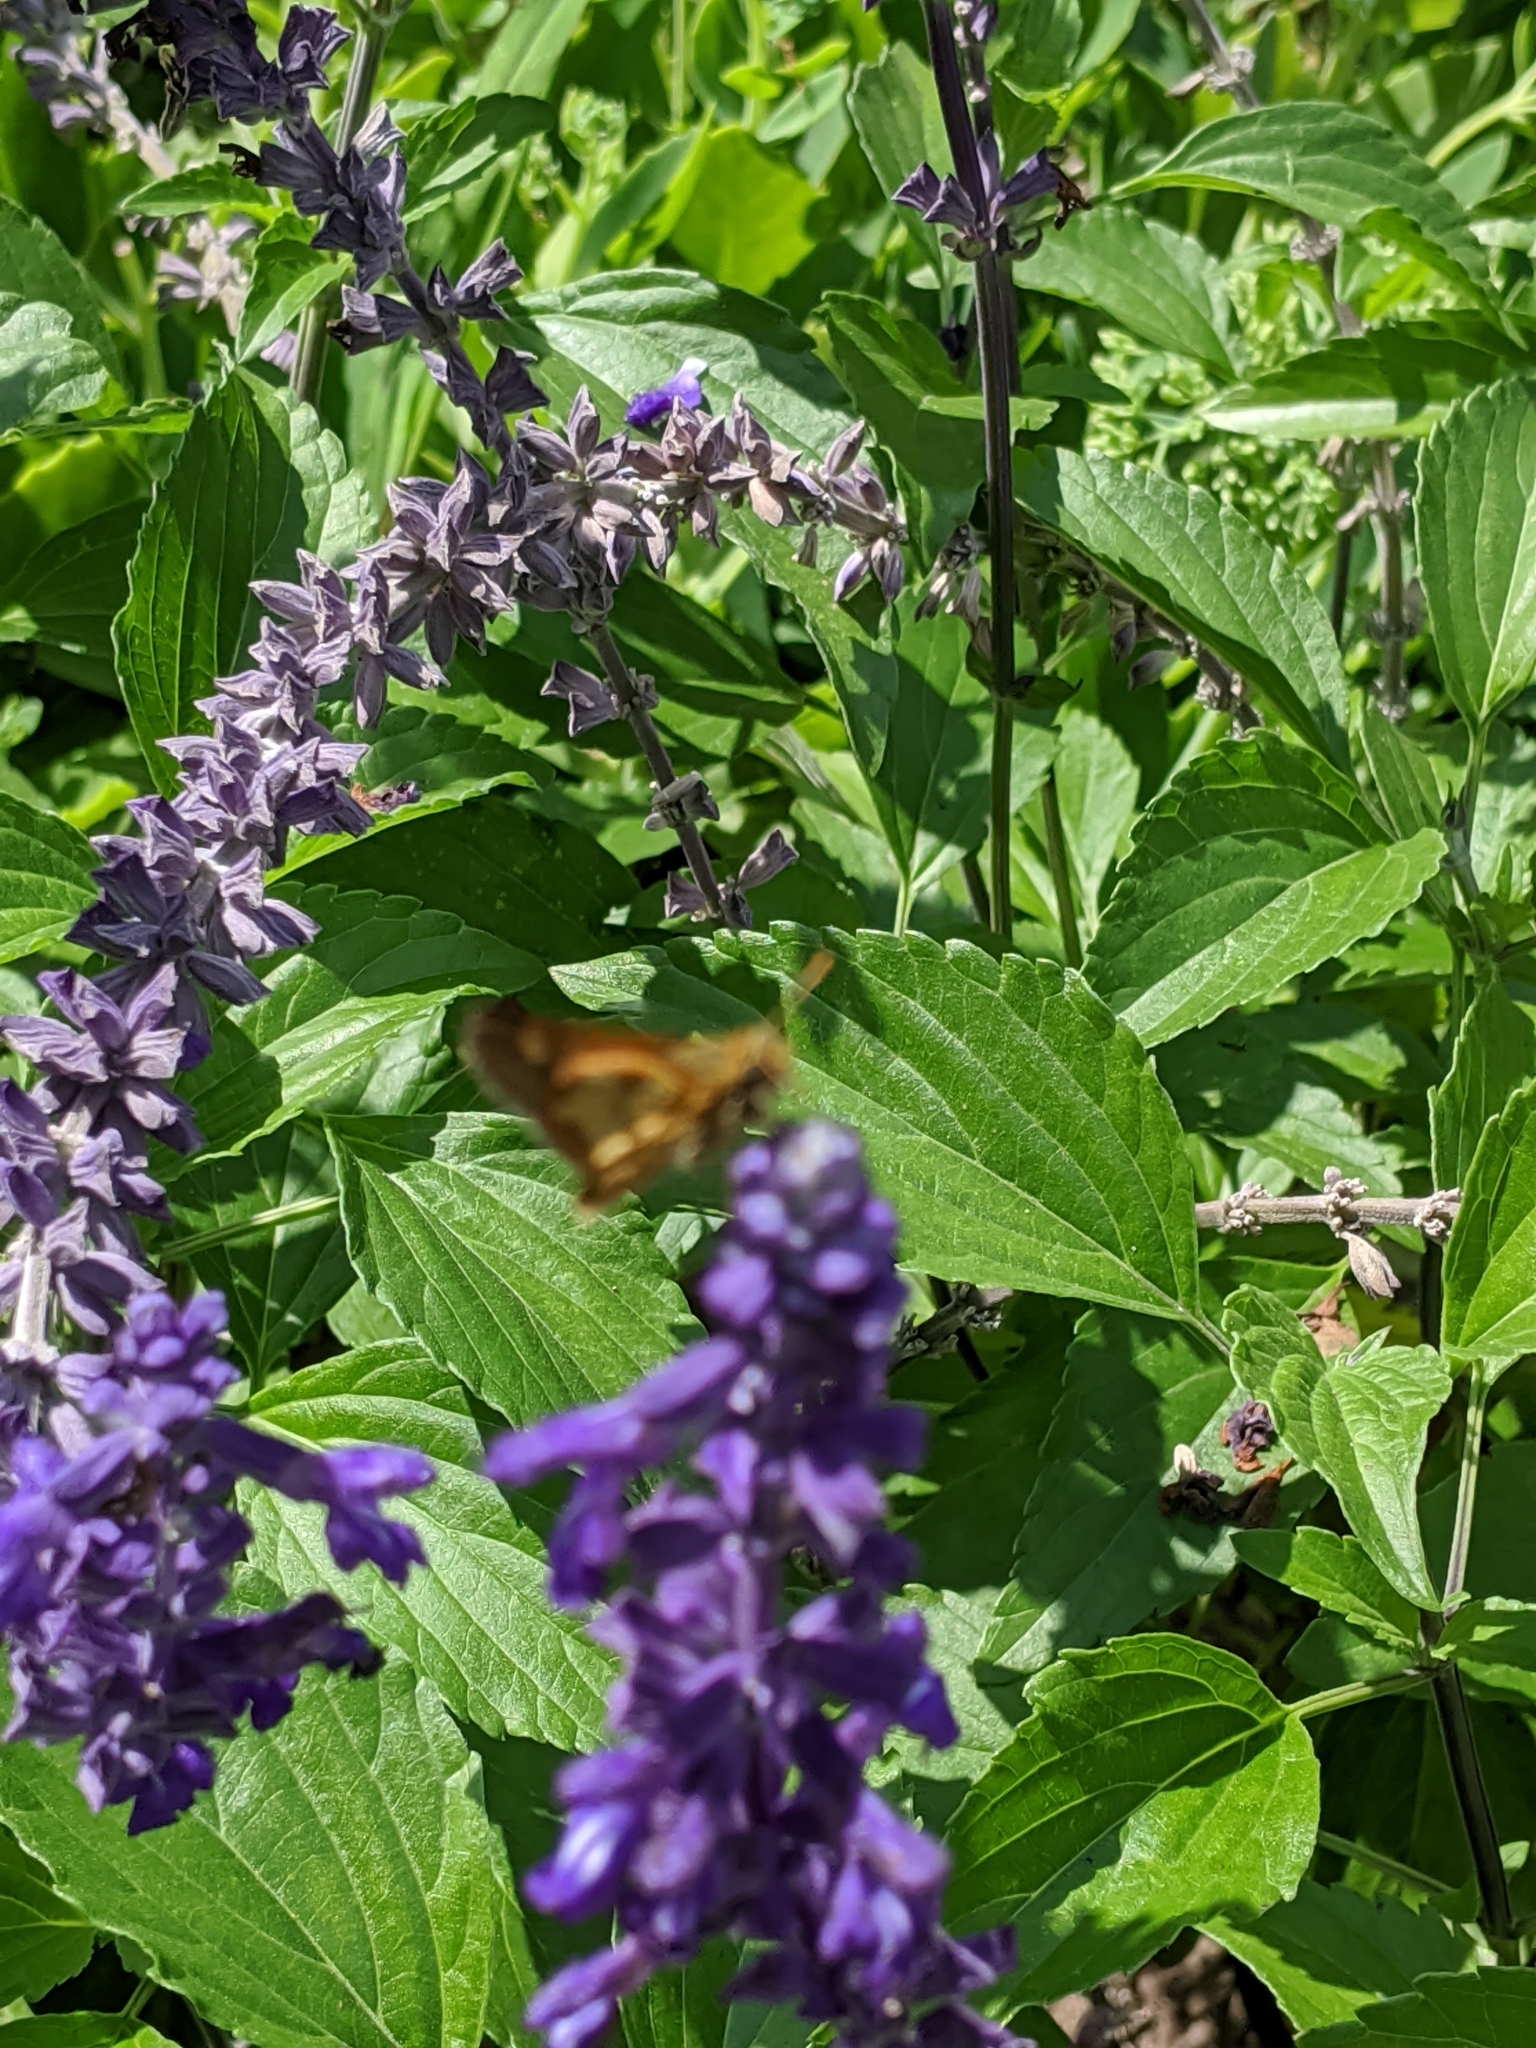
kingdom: Animalia
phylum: Arthropoda
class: Insecta
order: Lepidoptera
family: Hesperiidae
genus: Polites
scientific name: Polites coras
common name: Peck's skipper
